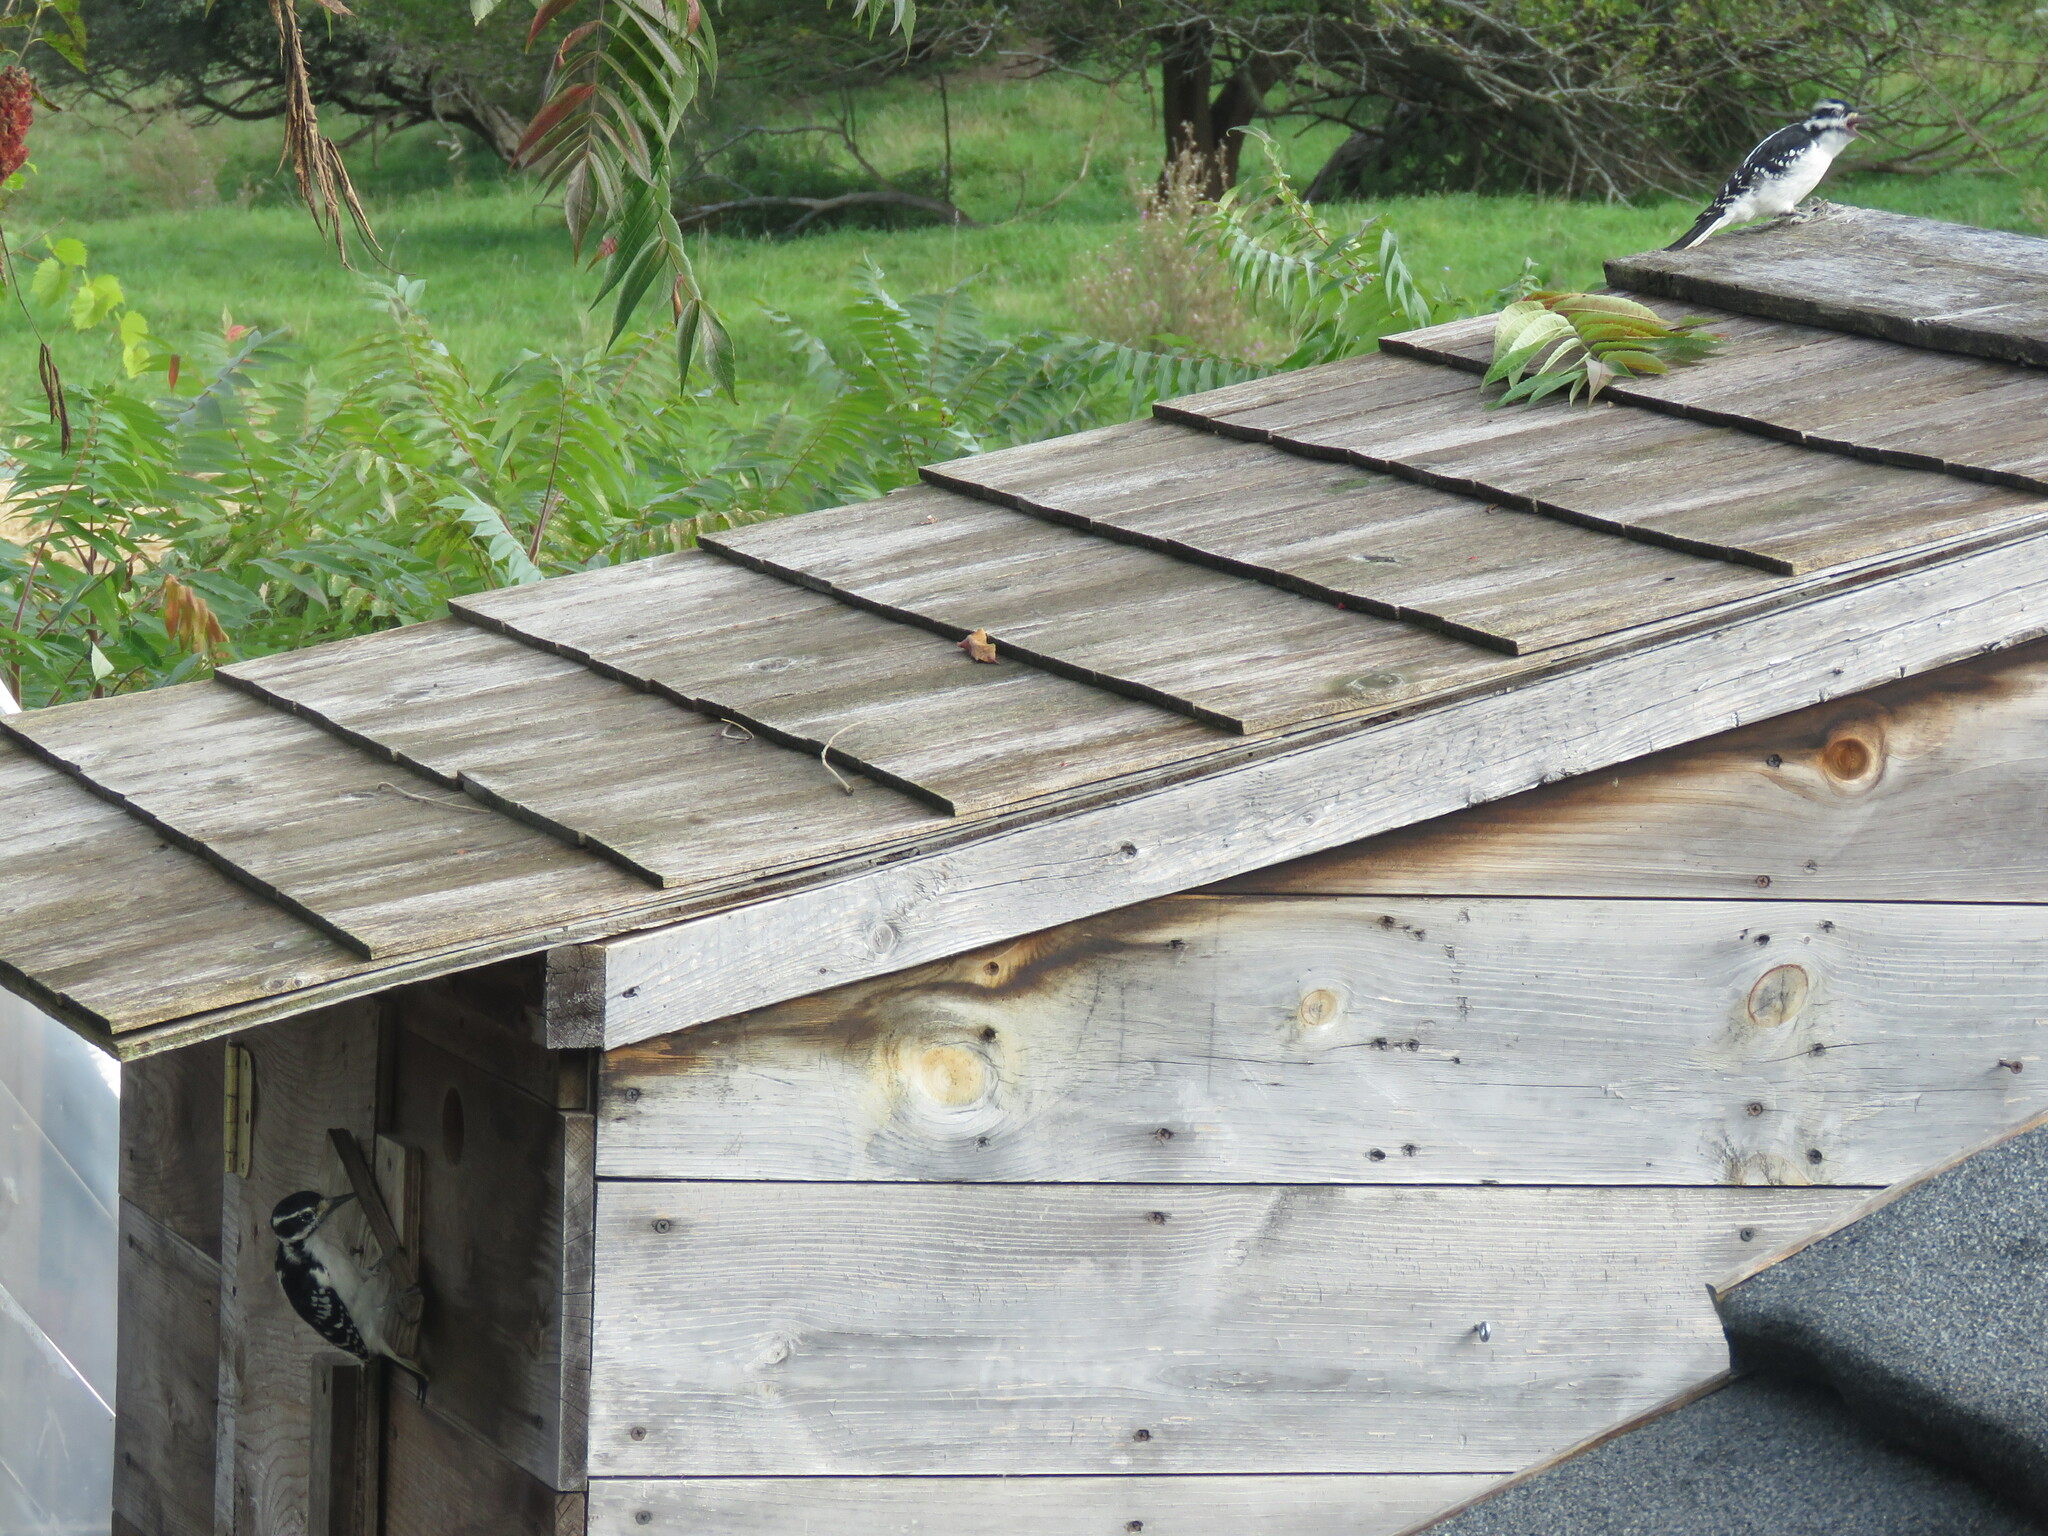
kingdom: Animalia
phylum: Chordata
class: Aves
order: Piciformes
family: Picidae
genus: Leuconotopicus
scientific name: Leuconotopicus villosus
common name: Hairy woodpecker
